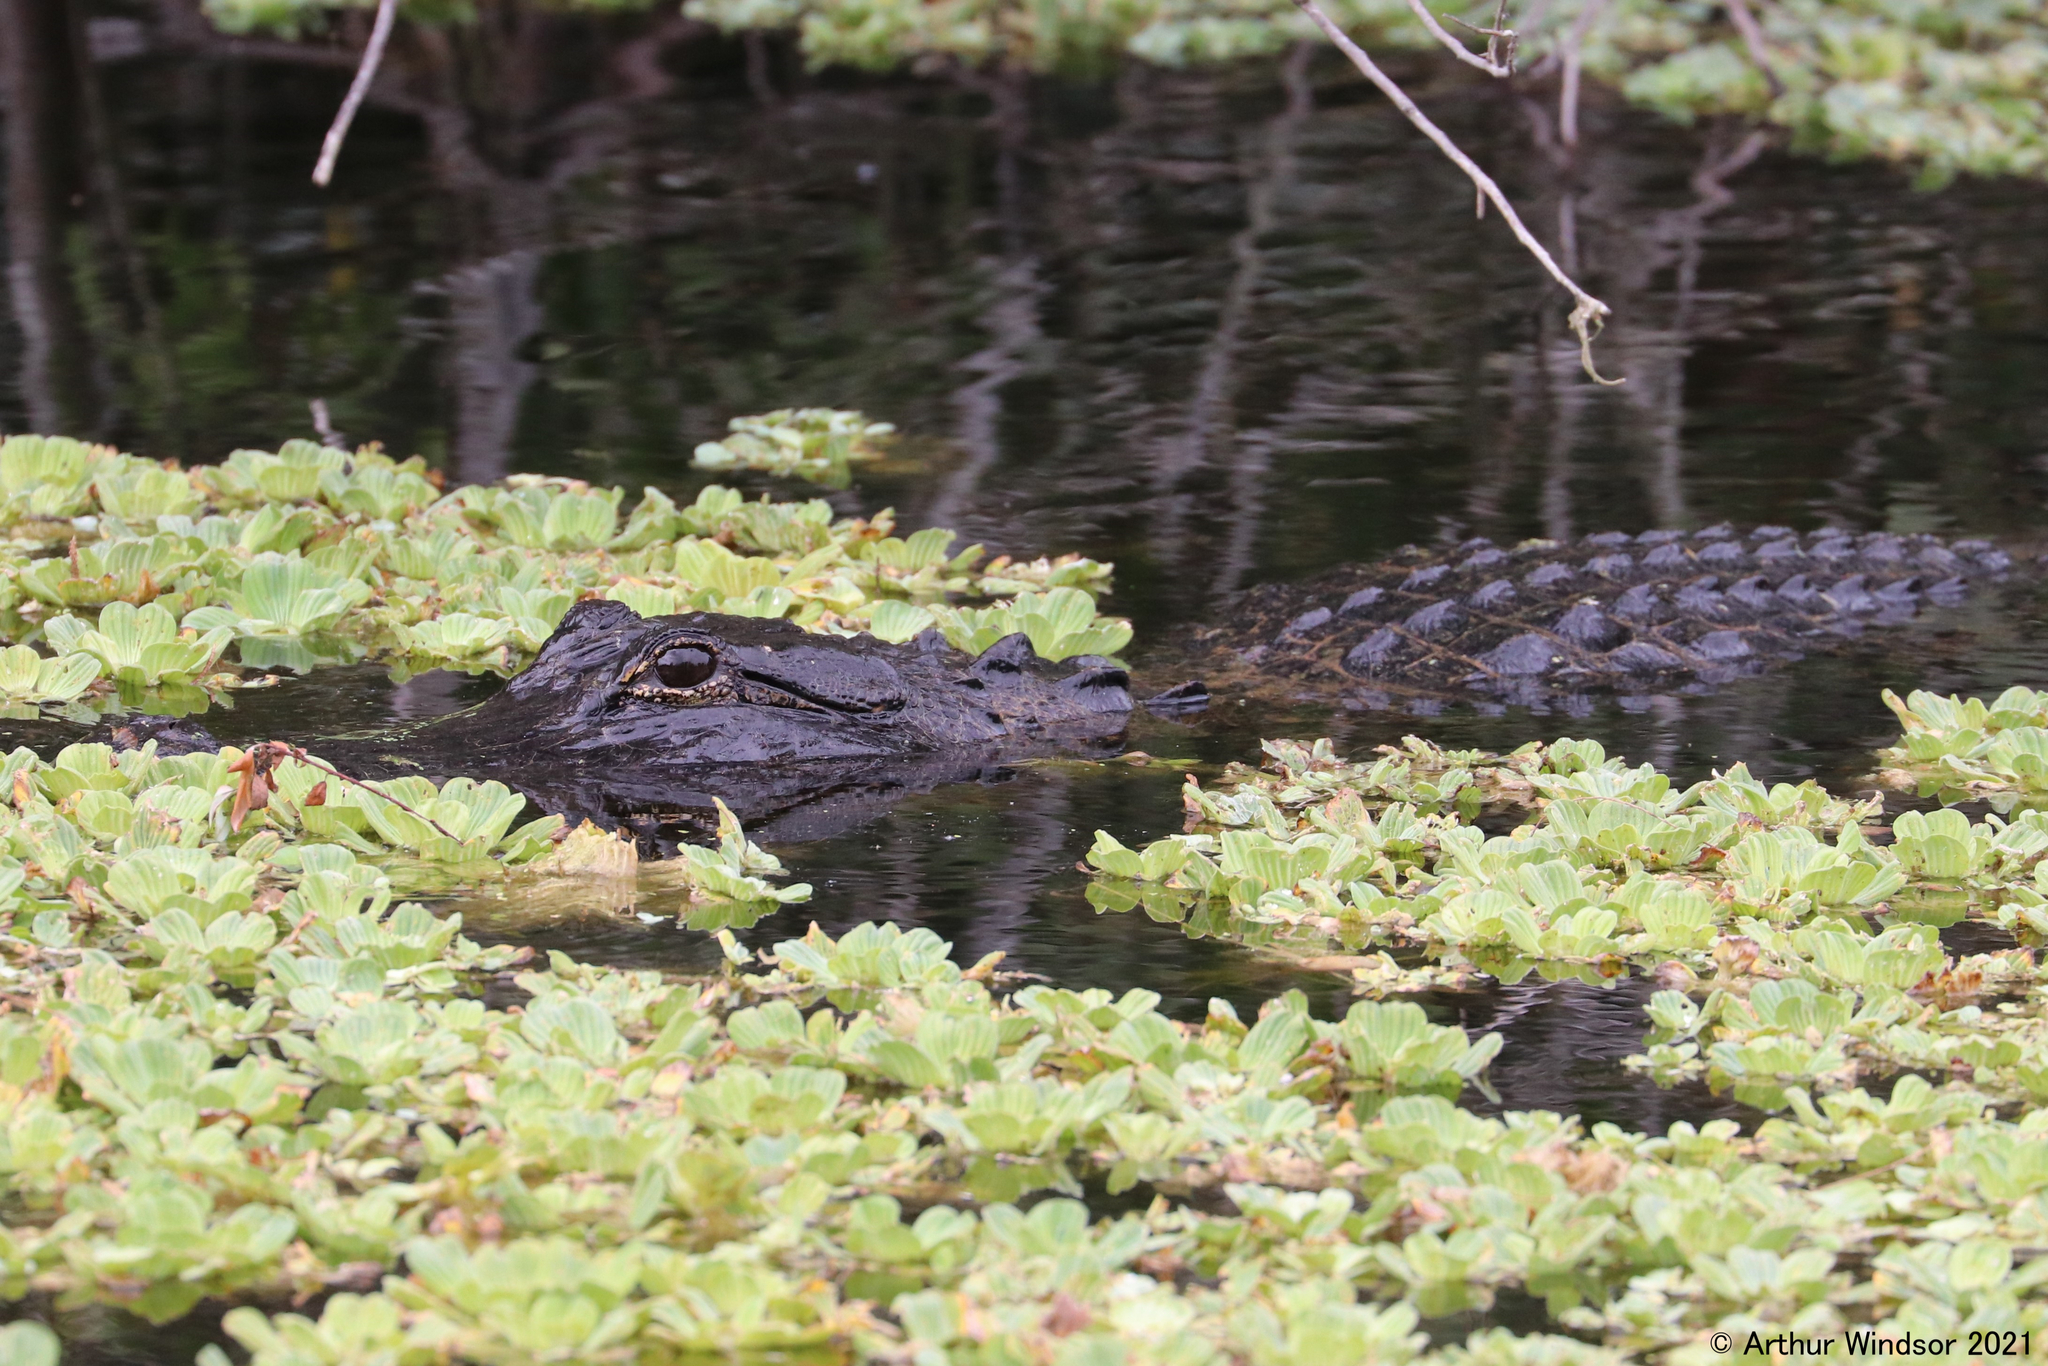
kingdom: Animalia
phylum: Chordata
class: Crocodylia
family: Alligatoridae
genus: Alligator
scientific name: Alligator mississippiensis
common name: American alligator
